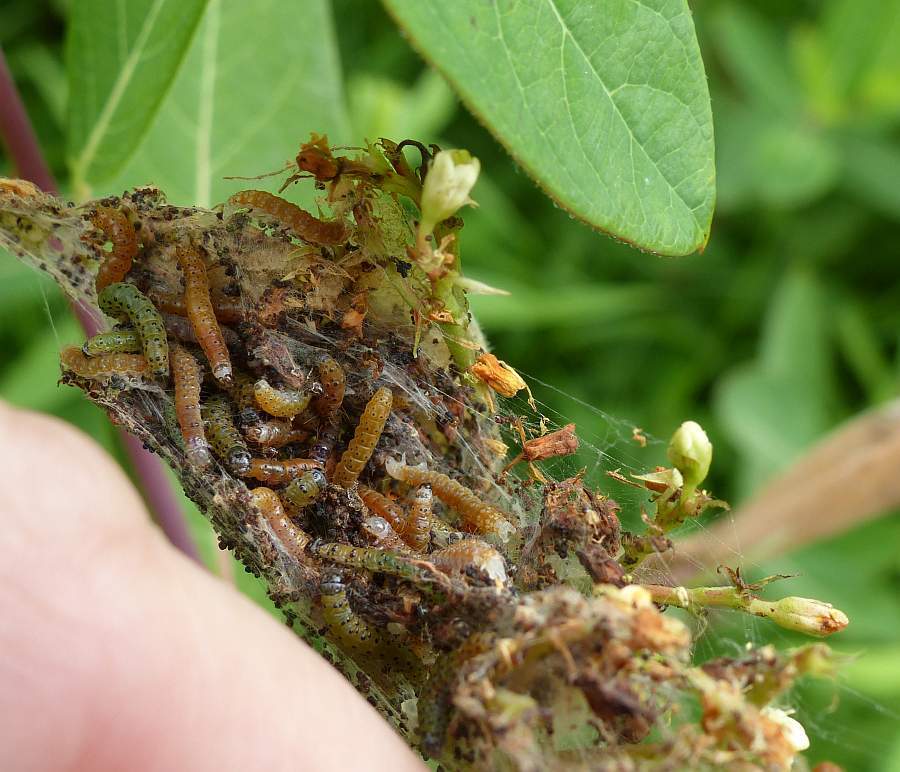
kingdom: Animalia
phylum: Arthropoda
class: Insecta
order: Lepidoptera
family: Crambidae
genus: Saucrobotys
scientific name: Saucrobotys futilalis
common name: Dogbane saucrobotys moth
